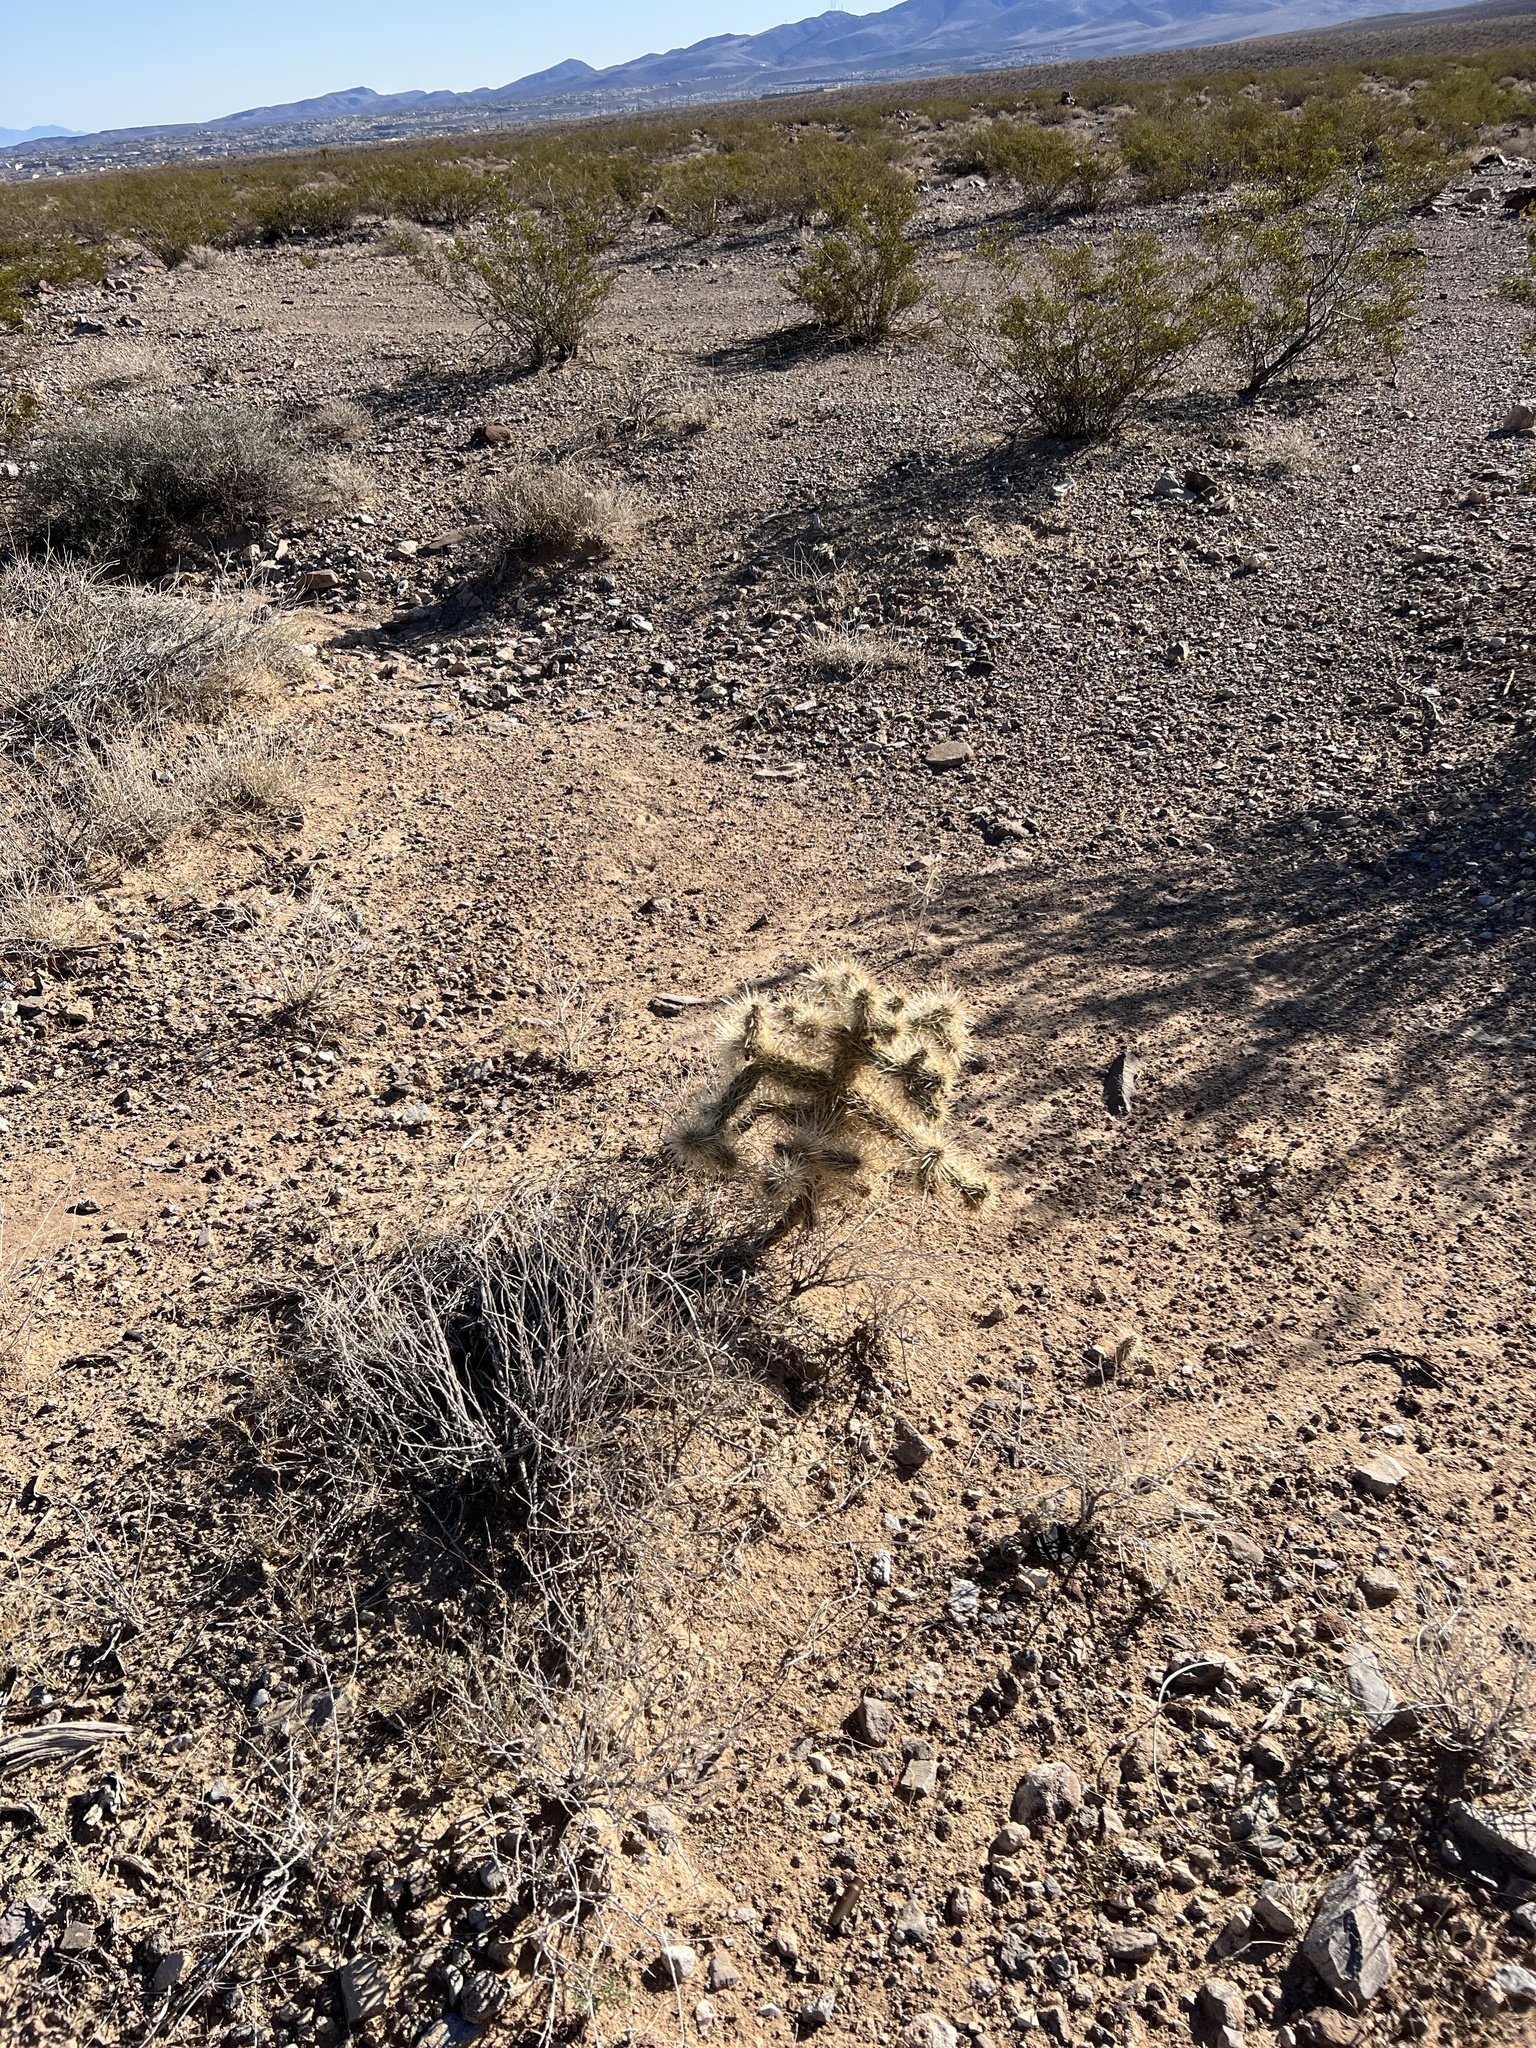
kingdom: Plantae
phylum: Tracheophyta
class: Magnoliopsida
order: Caryophyllales
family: Cactaceae
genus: Cylindropuntia
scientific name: Cylindropuntia echinocarpa
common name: Ground cholla
